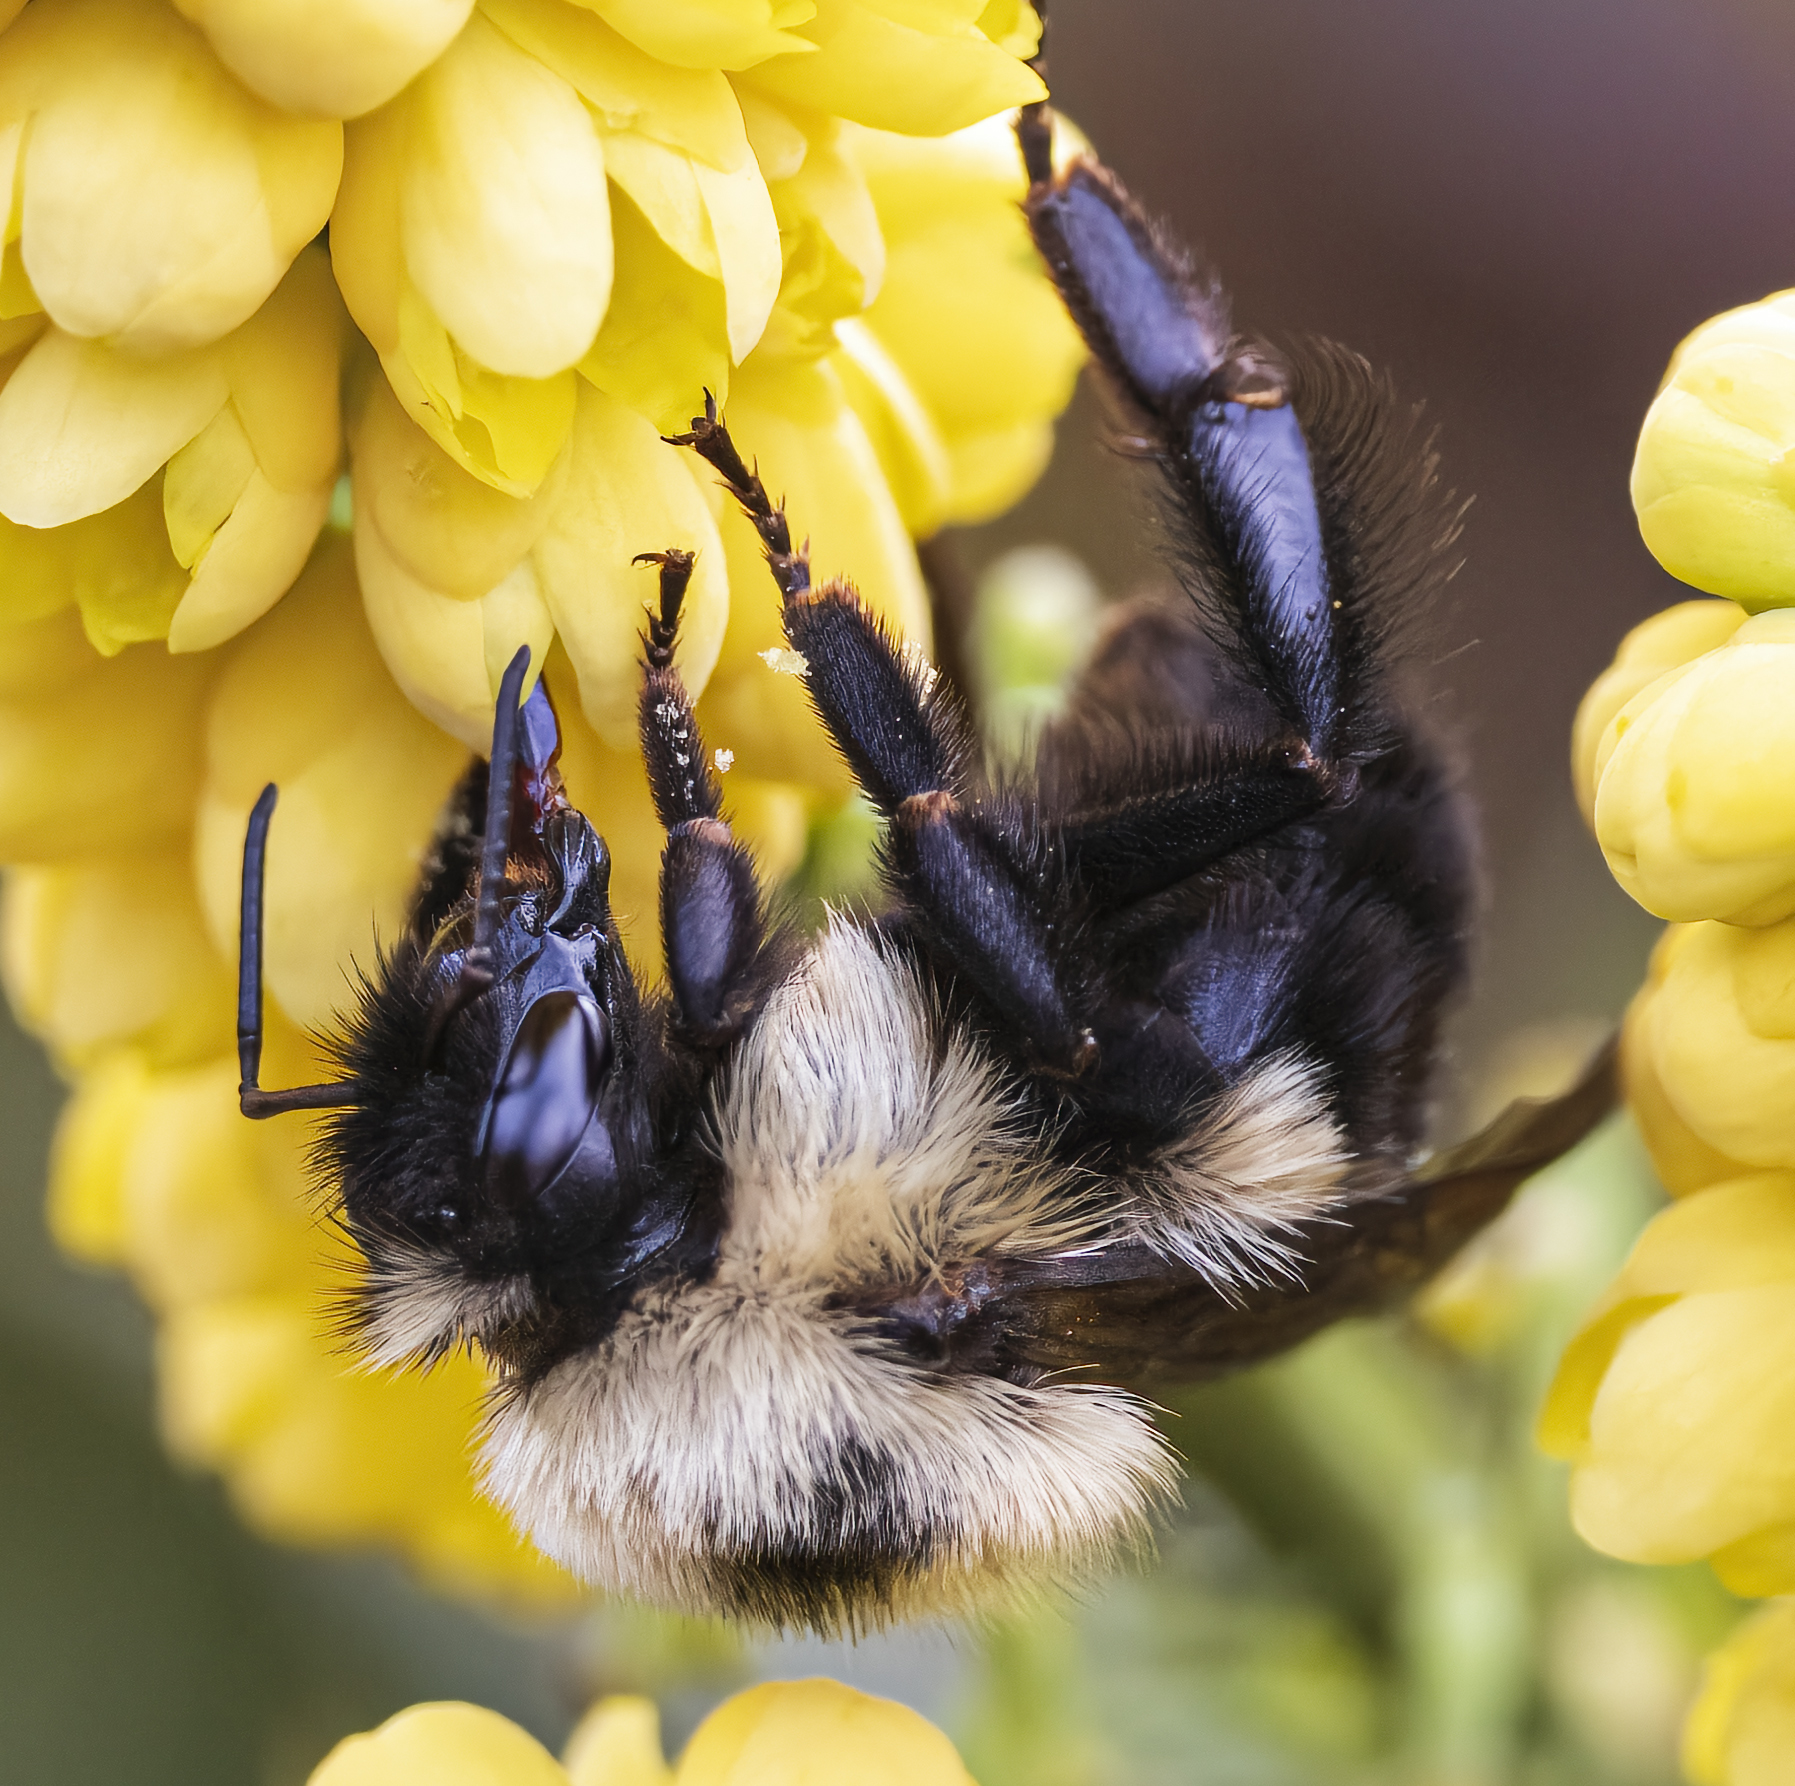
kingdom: Animalia
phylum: Arthropoda
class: Insecta
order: Hymenoptera
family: Apidae
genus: Bombus
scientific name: Bombus bimaculatus
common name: Two-spotted bumble bee
